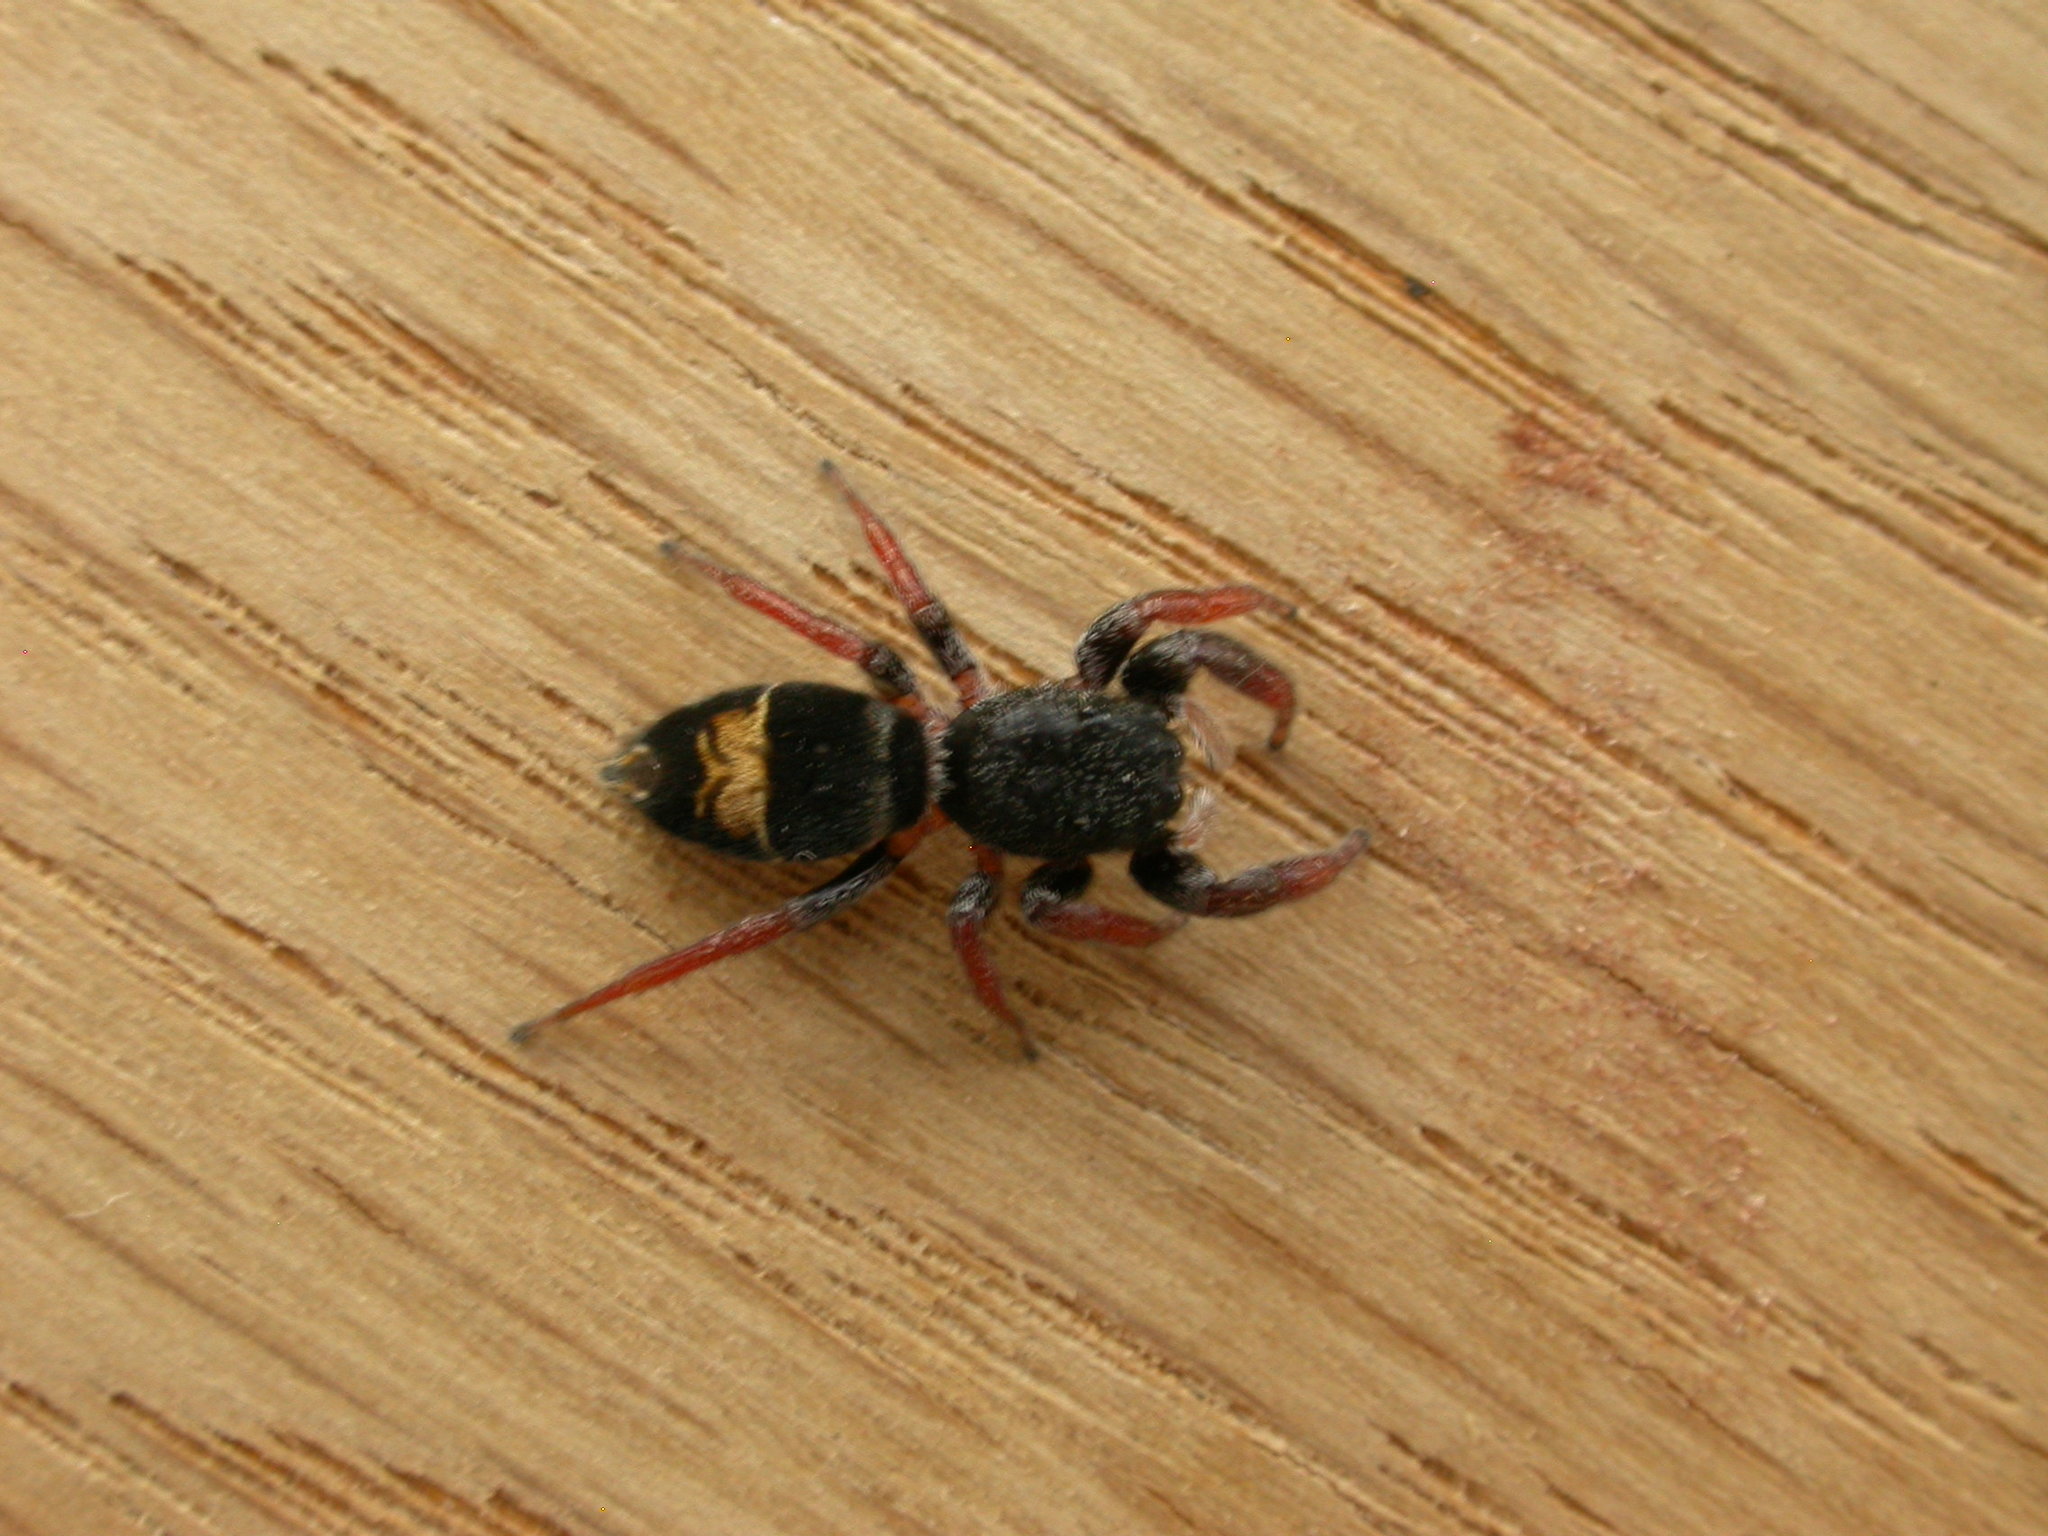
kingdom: Animalia
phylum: Arthropoda
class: Arachnida
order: Araneae
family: Salticidae
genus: Apricia
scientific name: Apricia jovialis
